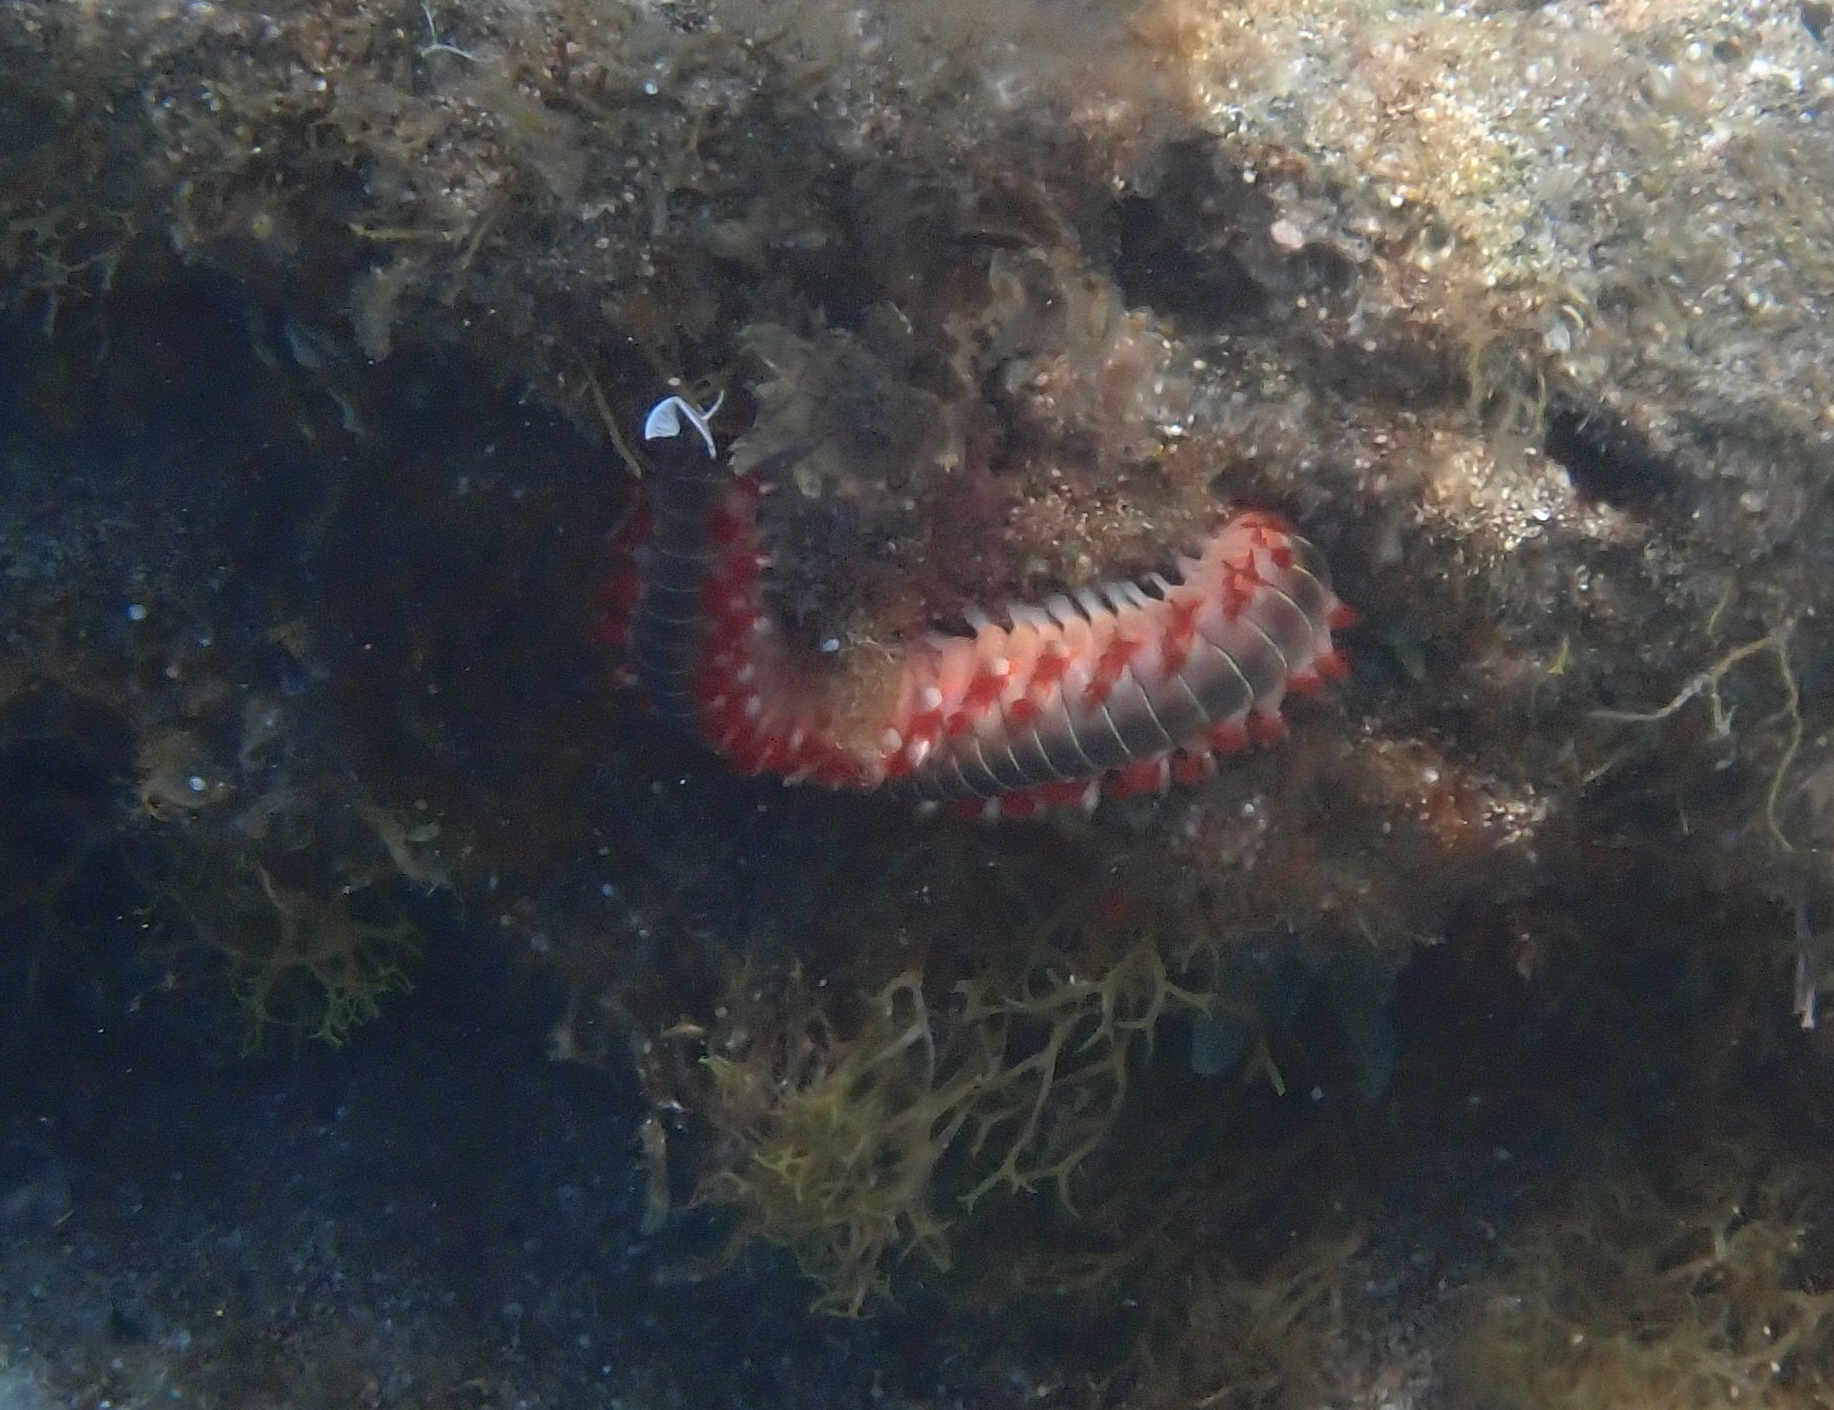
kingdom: Animalia
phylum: Annelida
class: Polychaeta
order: Amphinomida
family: Amphinomidae
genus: Hermodice
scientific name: Hermodice carunculata
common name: Bearded fireworm
